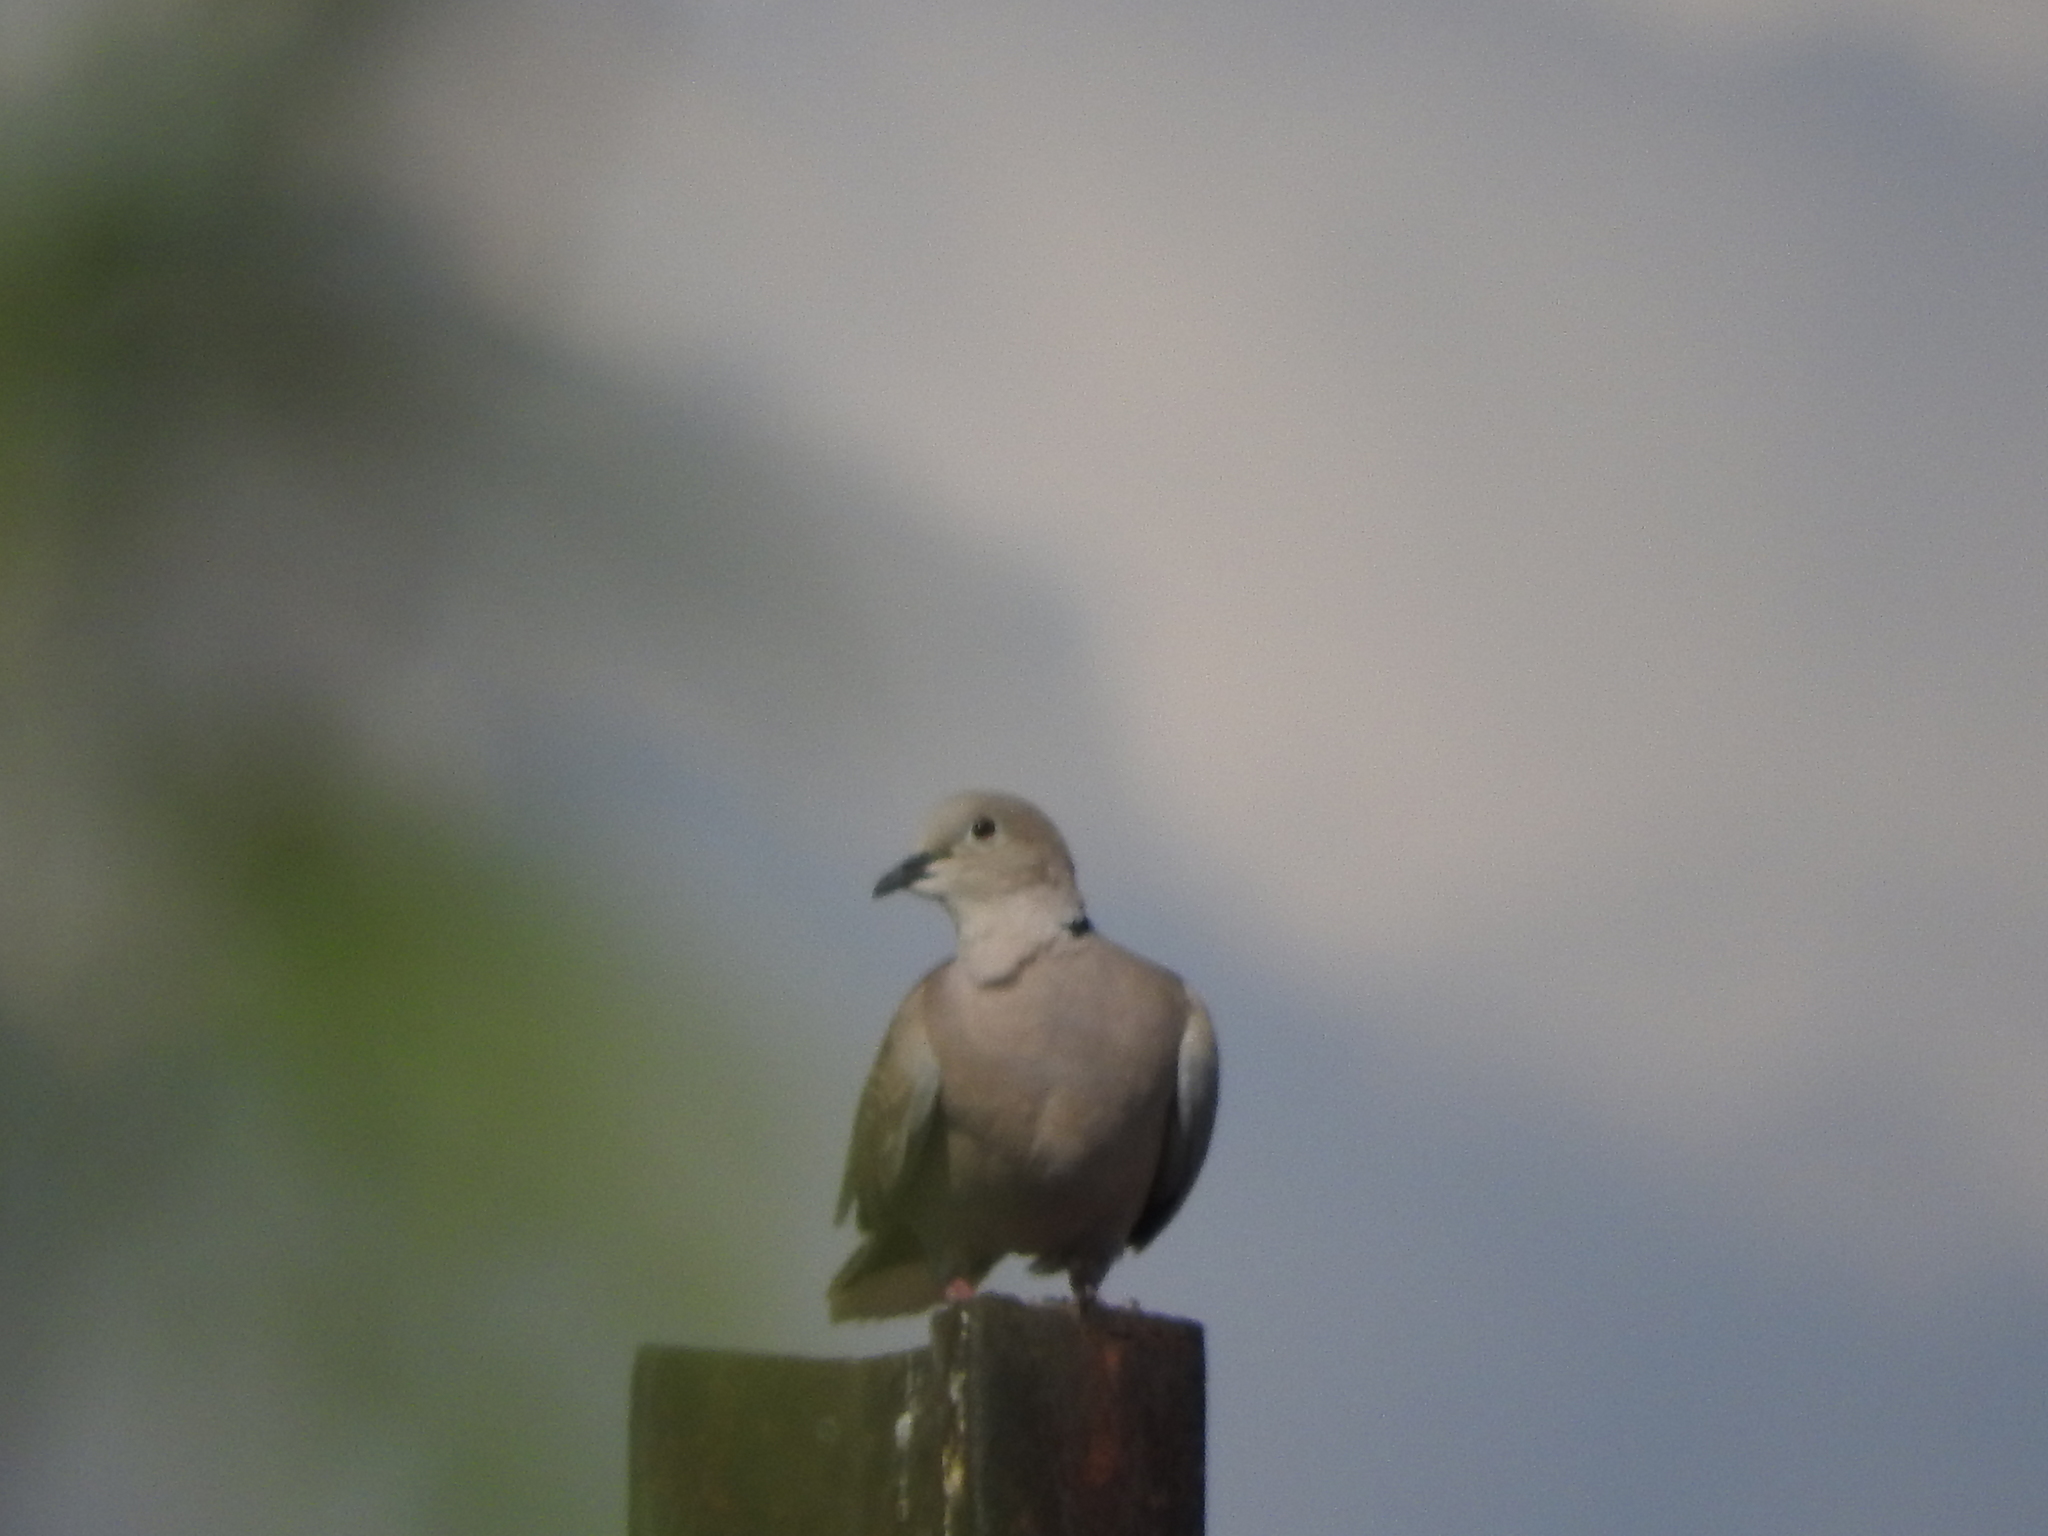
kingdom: Animalia
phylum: Chordata
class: Aves
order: Columbiformes
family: Columbidae
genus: Streptopelia
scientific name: Streptopelia decaocto
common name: Eurasian collared dove
